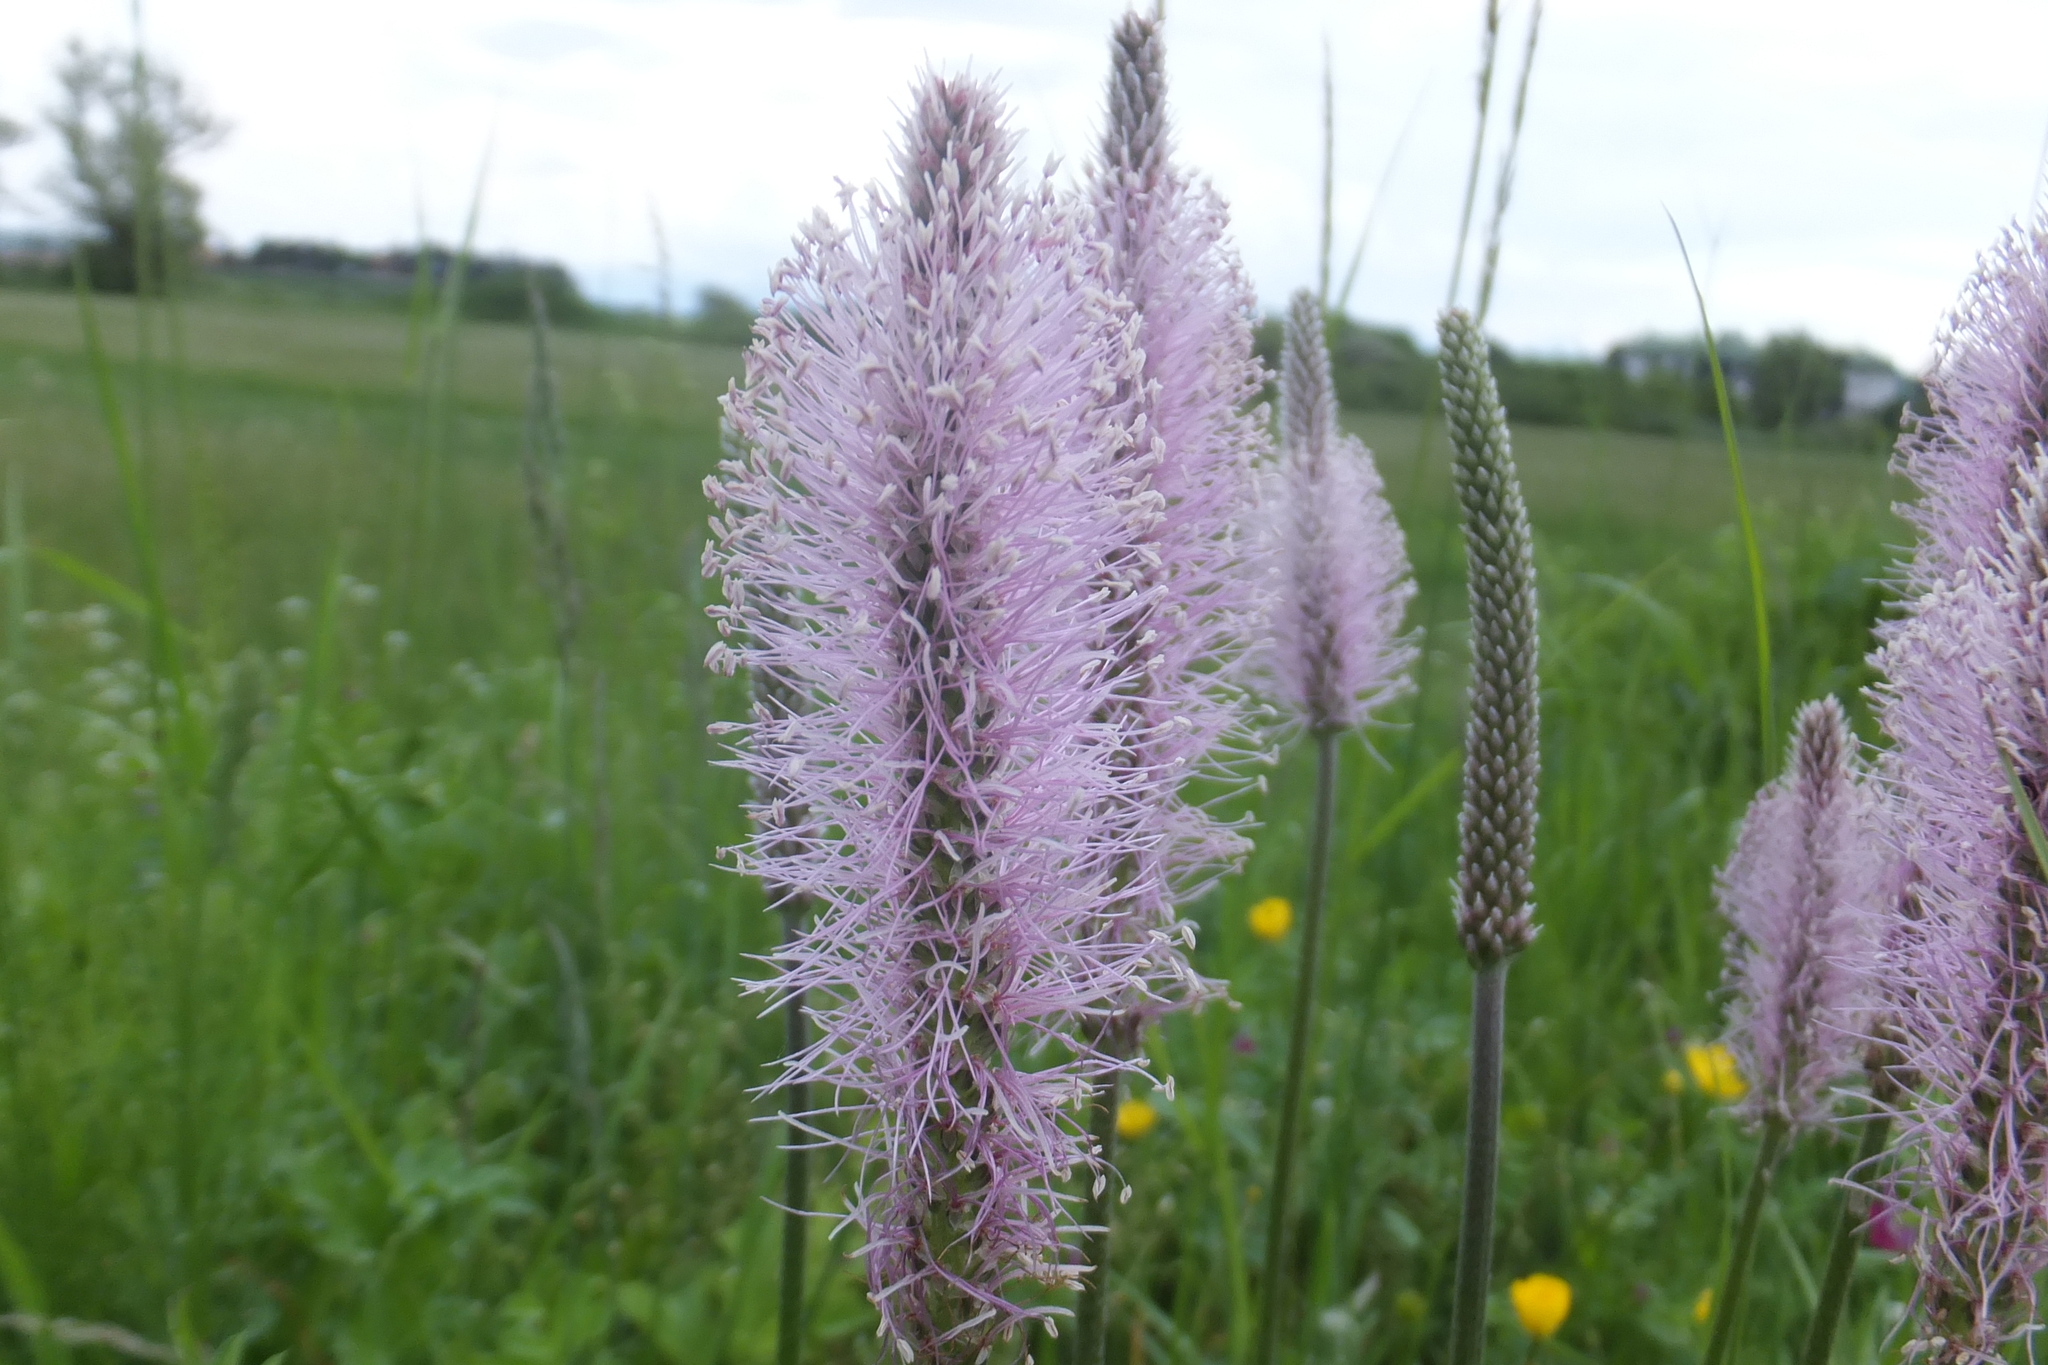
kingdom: Plantae
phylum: Tracheophyta
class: Magnoliopsida
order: Lamiales
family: Plantaginaceae
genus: Plantago
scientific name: Plantago media
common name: Hoary plantain
